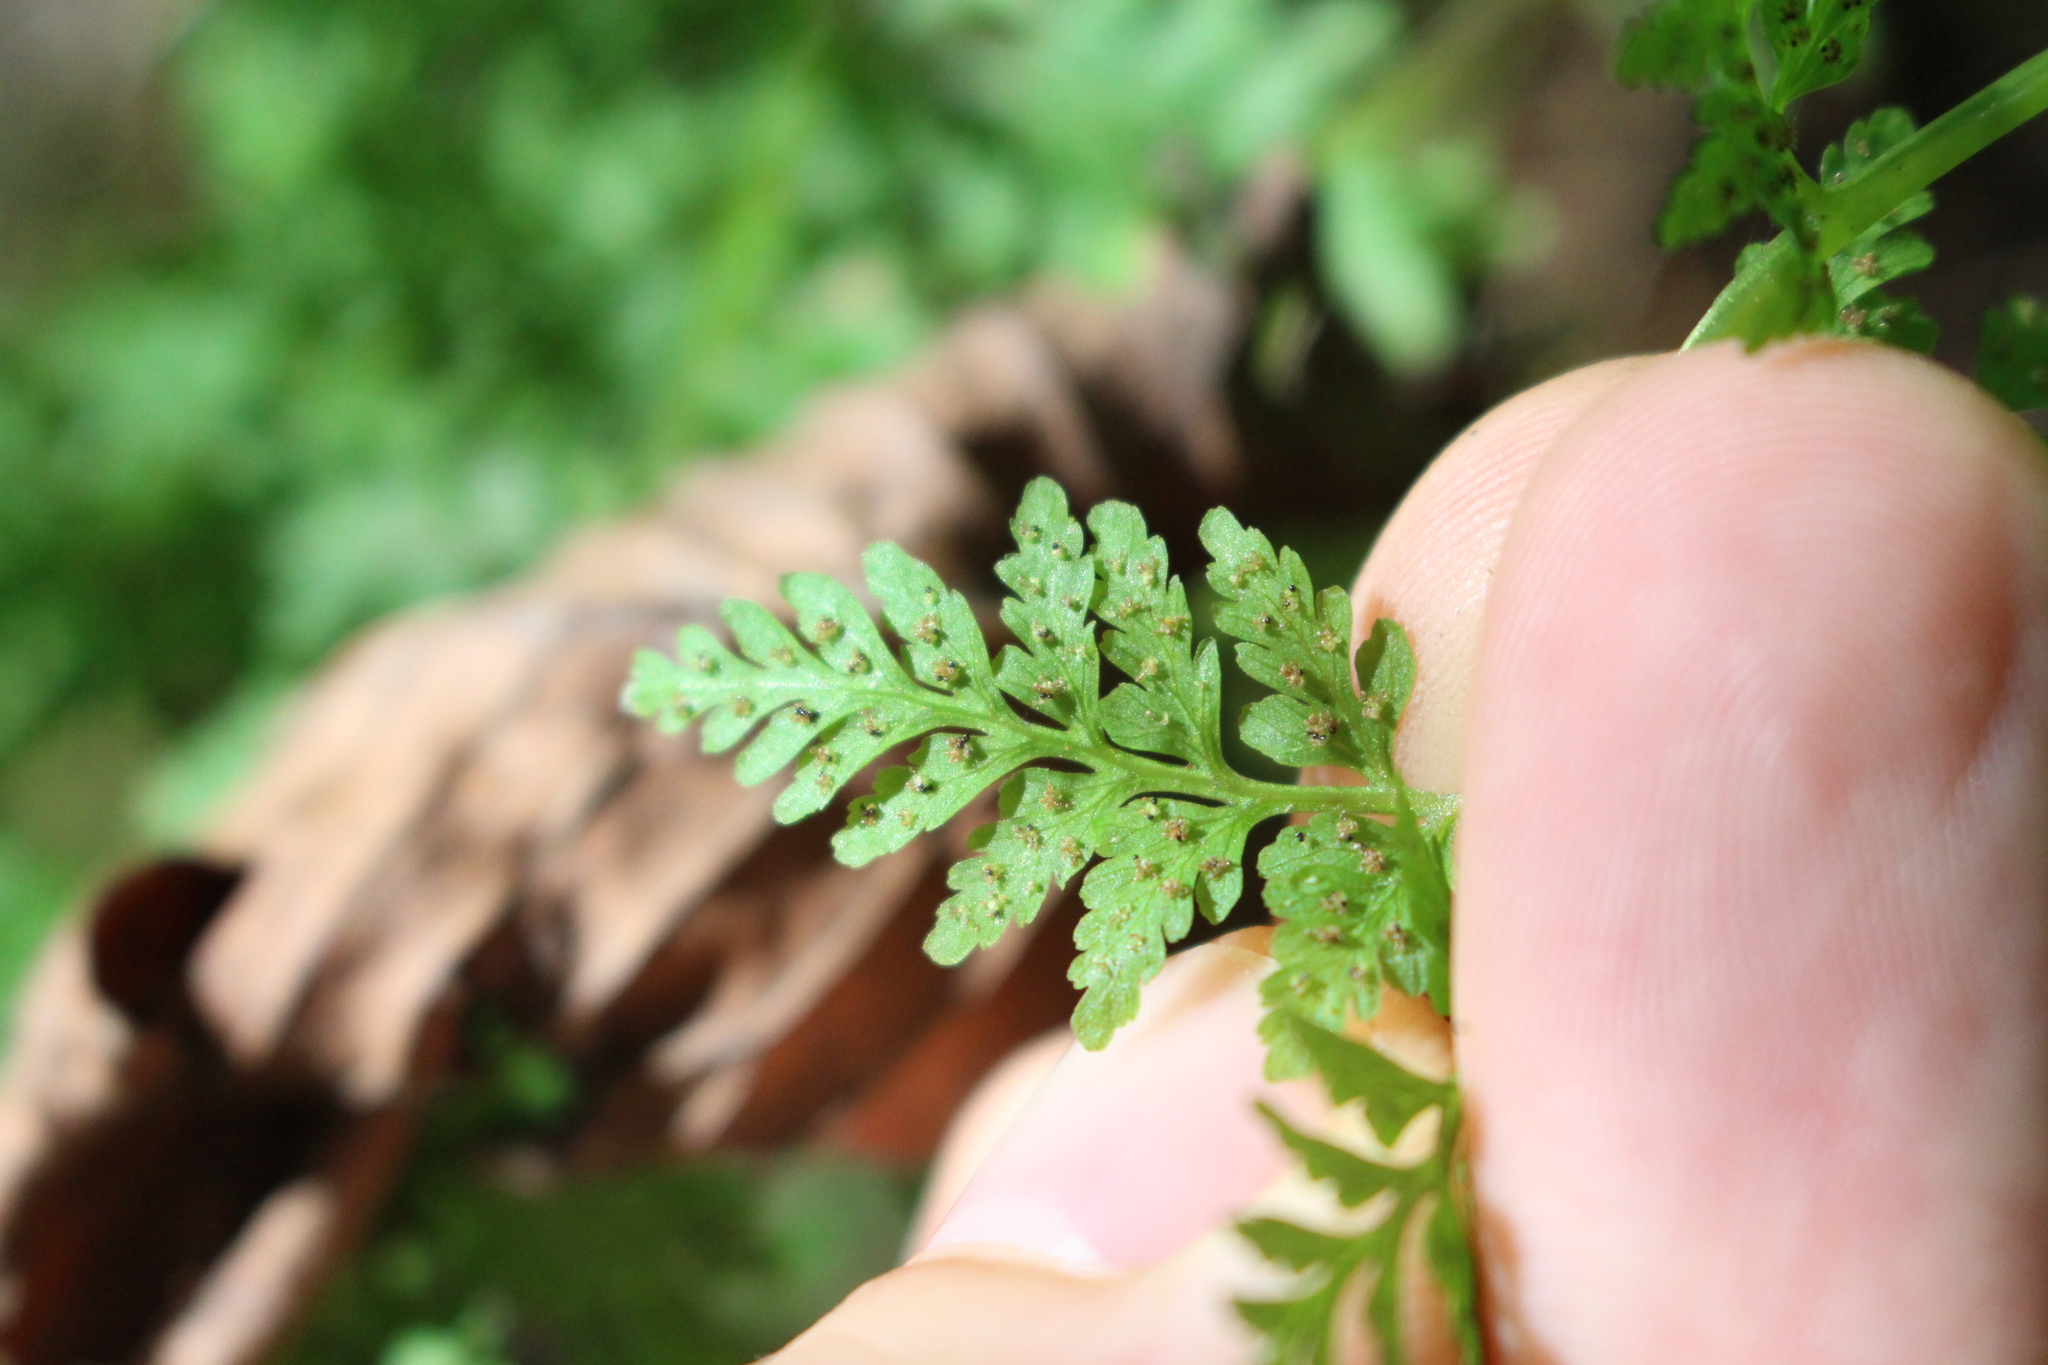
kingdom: Plantae
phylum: Tracheophyta
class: Polypodiopsida
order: Polypodiales
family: Cystopteridaceae
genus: Cystopteris
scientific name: Cystopteris fragilis
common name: Brittle bladder fern
